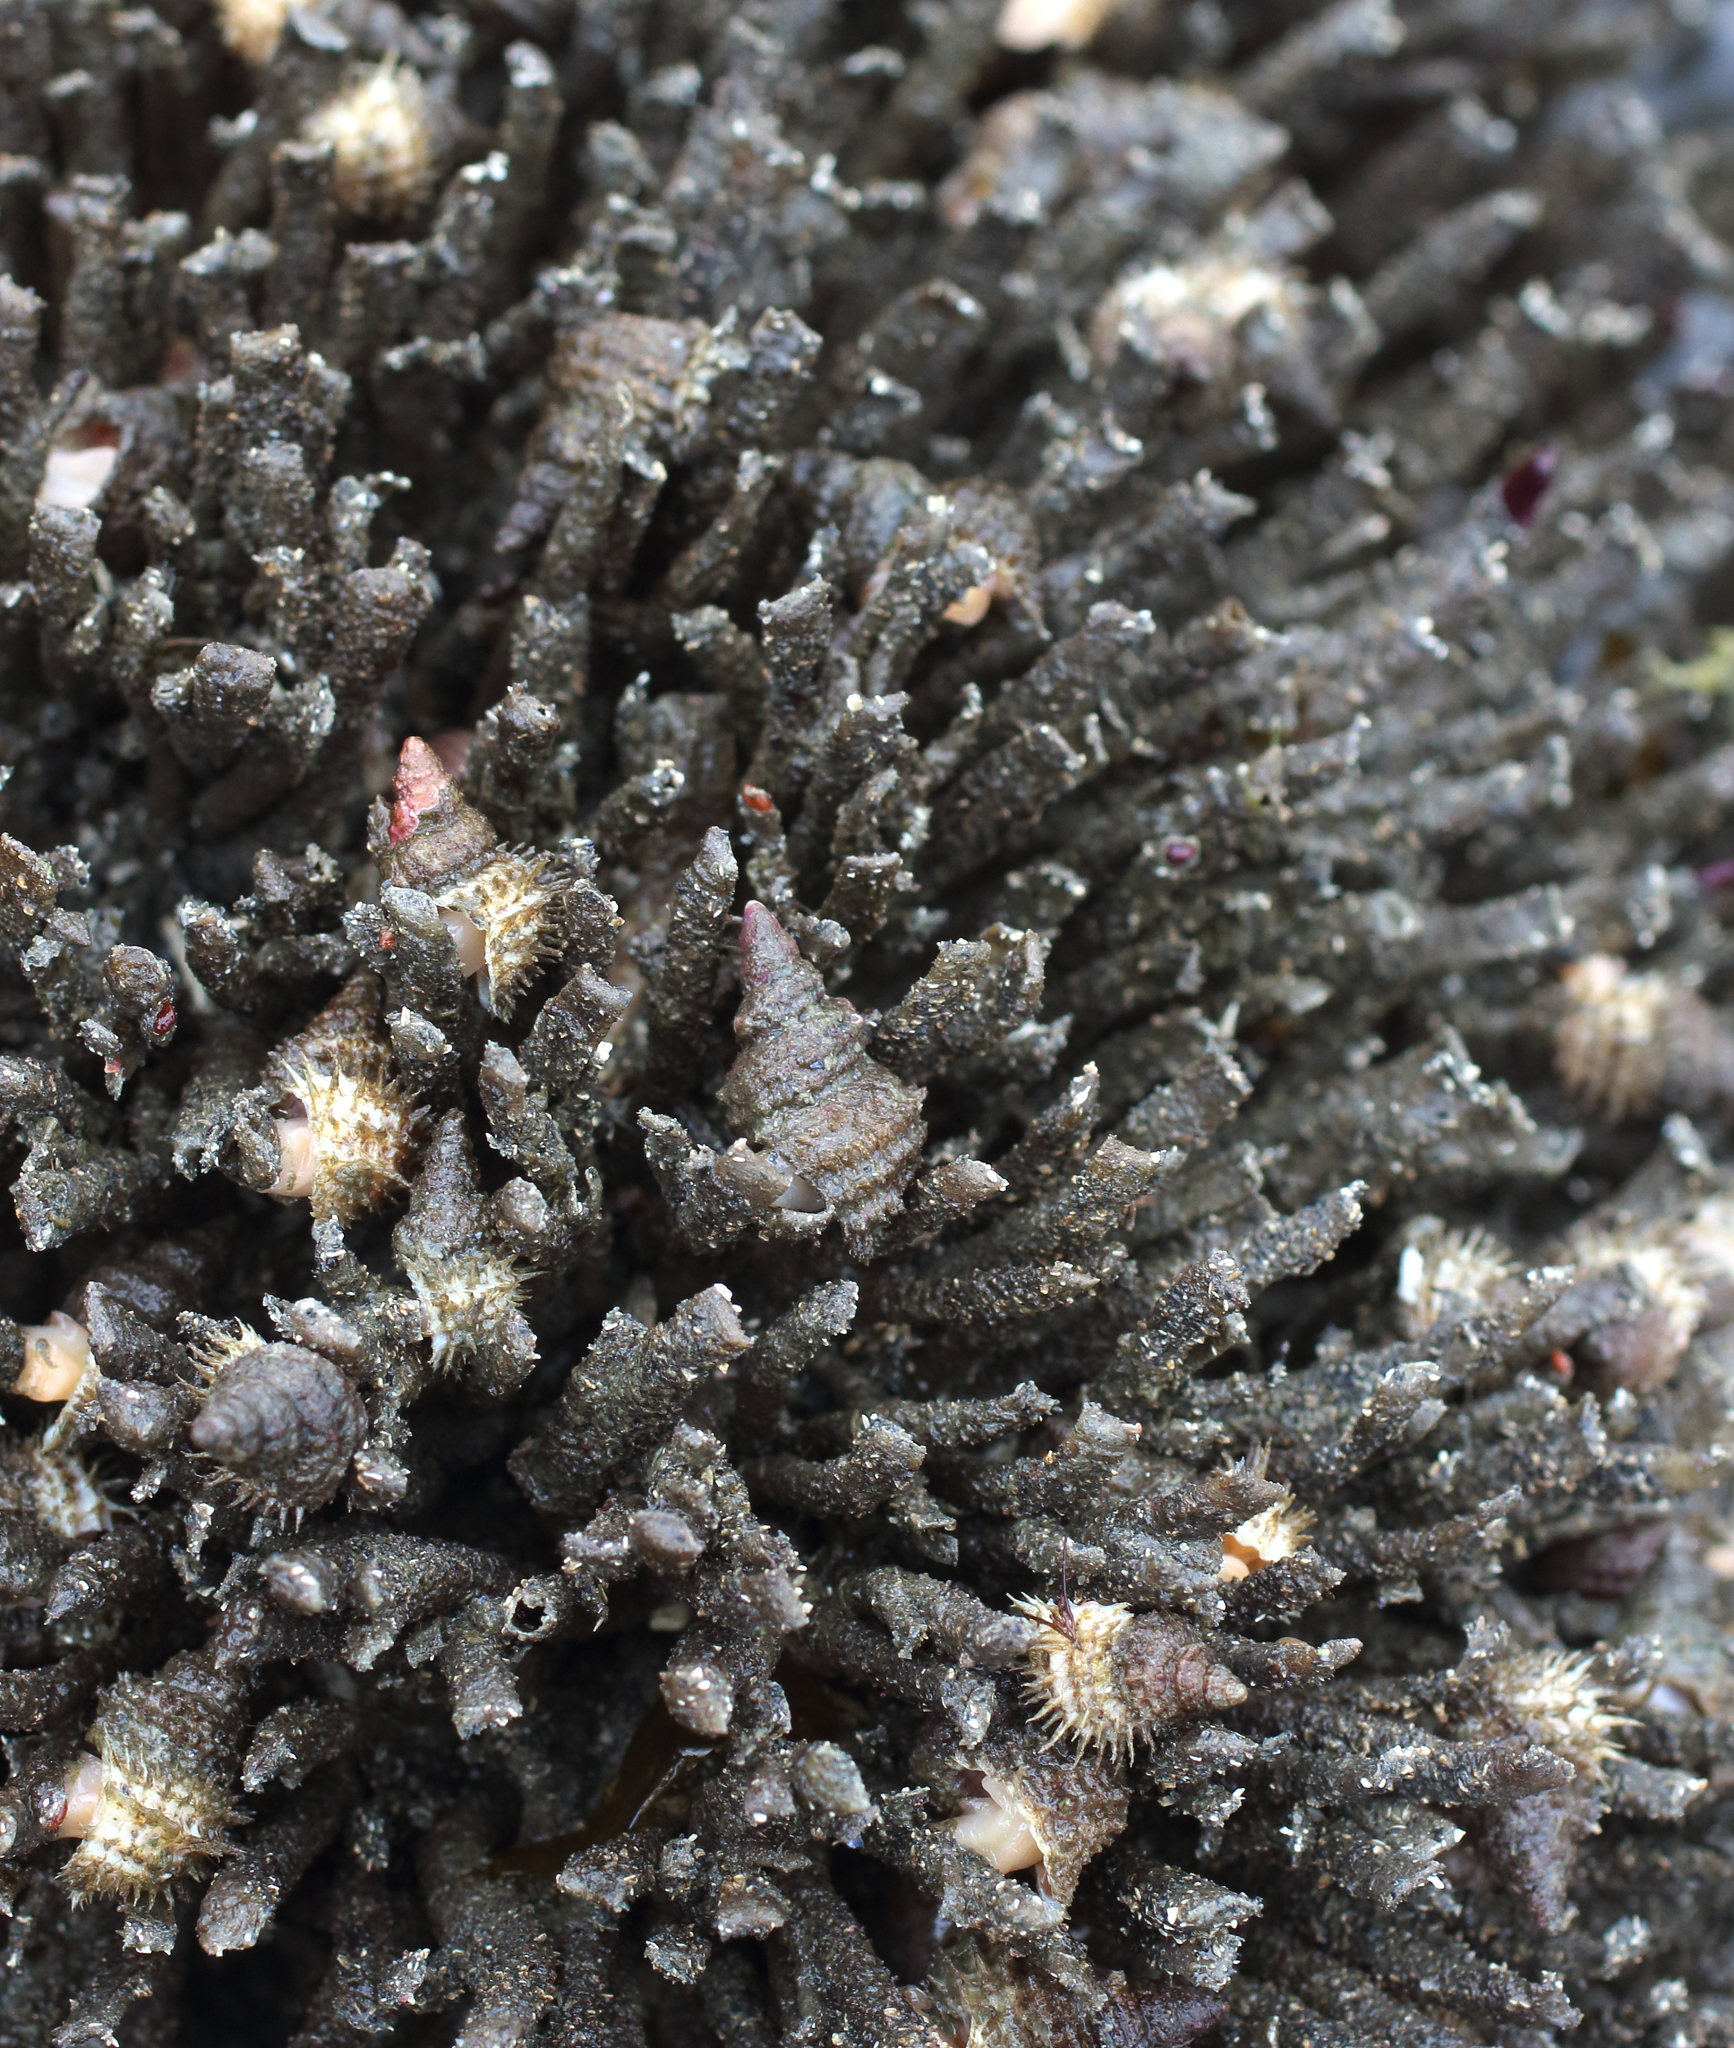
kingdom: Animalia
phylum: Annelida
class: Polychaeta
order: Sabellida
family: Sabellidae
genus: Schizobranchia
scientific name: Schizobranchia insignis
